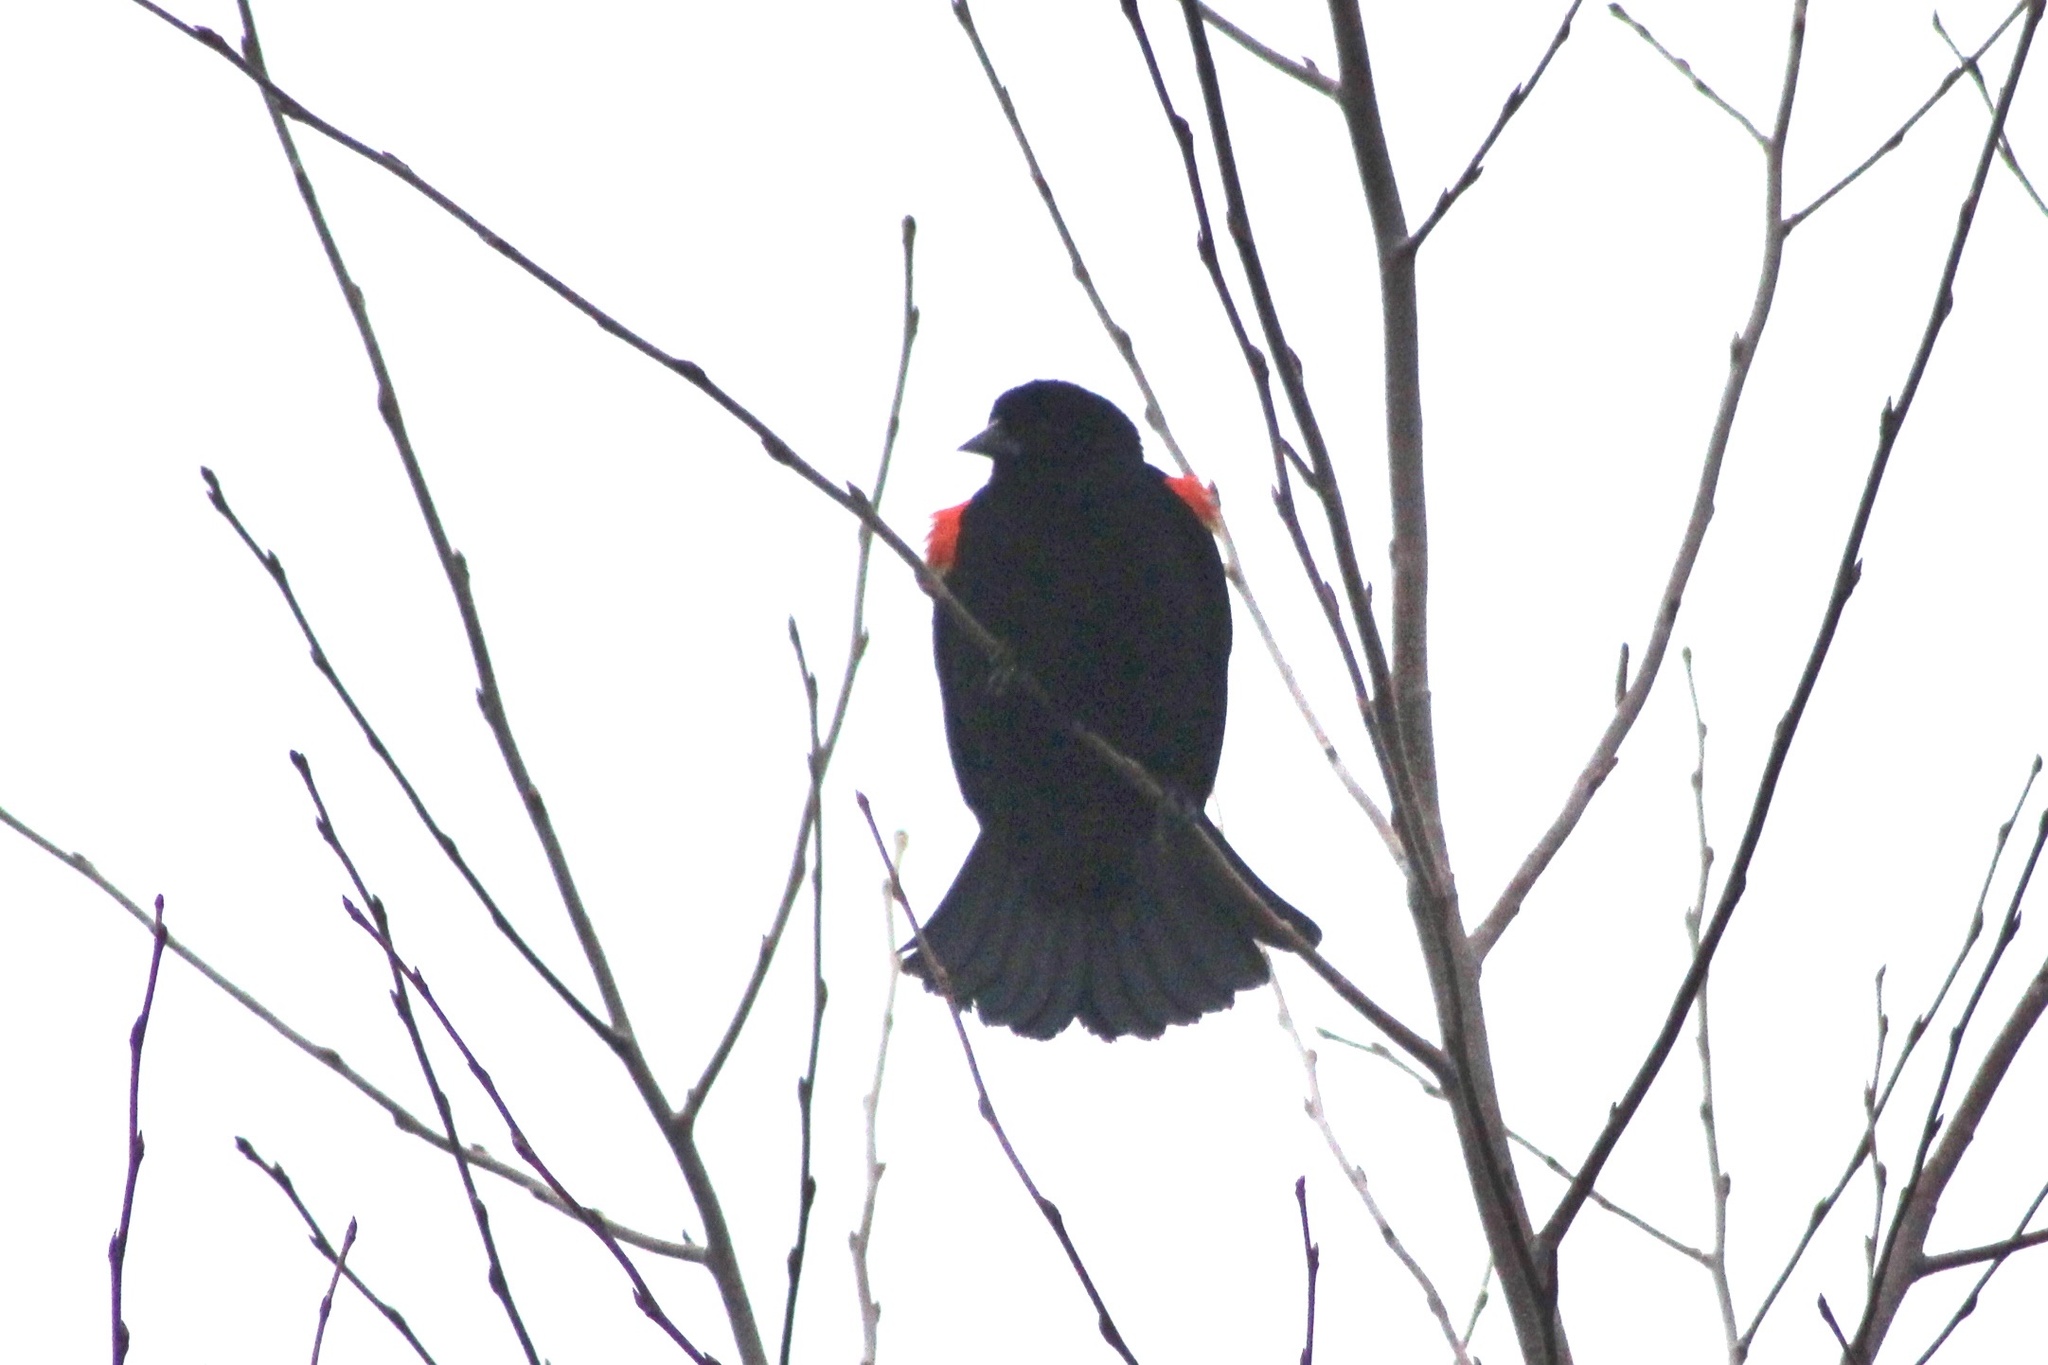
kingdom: Animalia
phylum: Chordata
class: Aves
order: Passeriformes
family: Icteridae
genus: Agelaius
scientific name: Agelaius phoeniceus
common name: Red-winged blackbird
